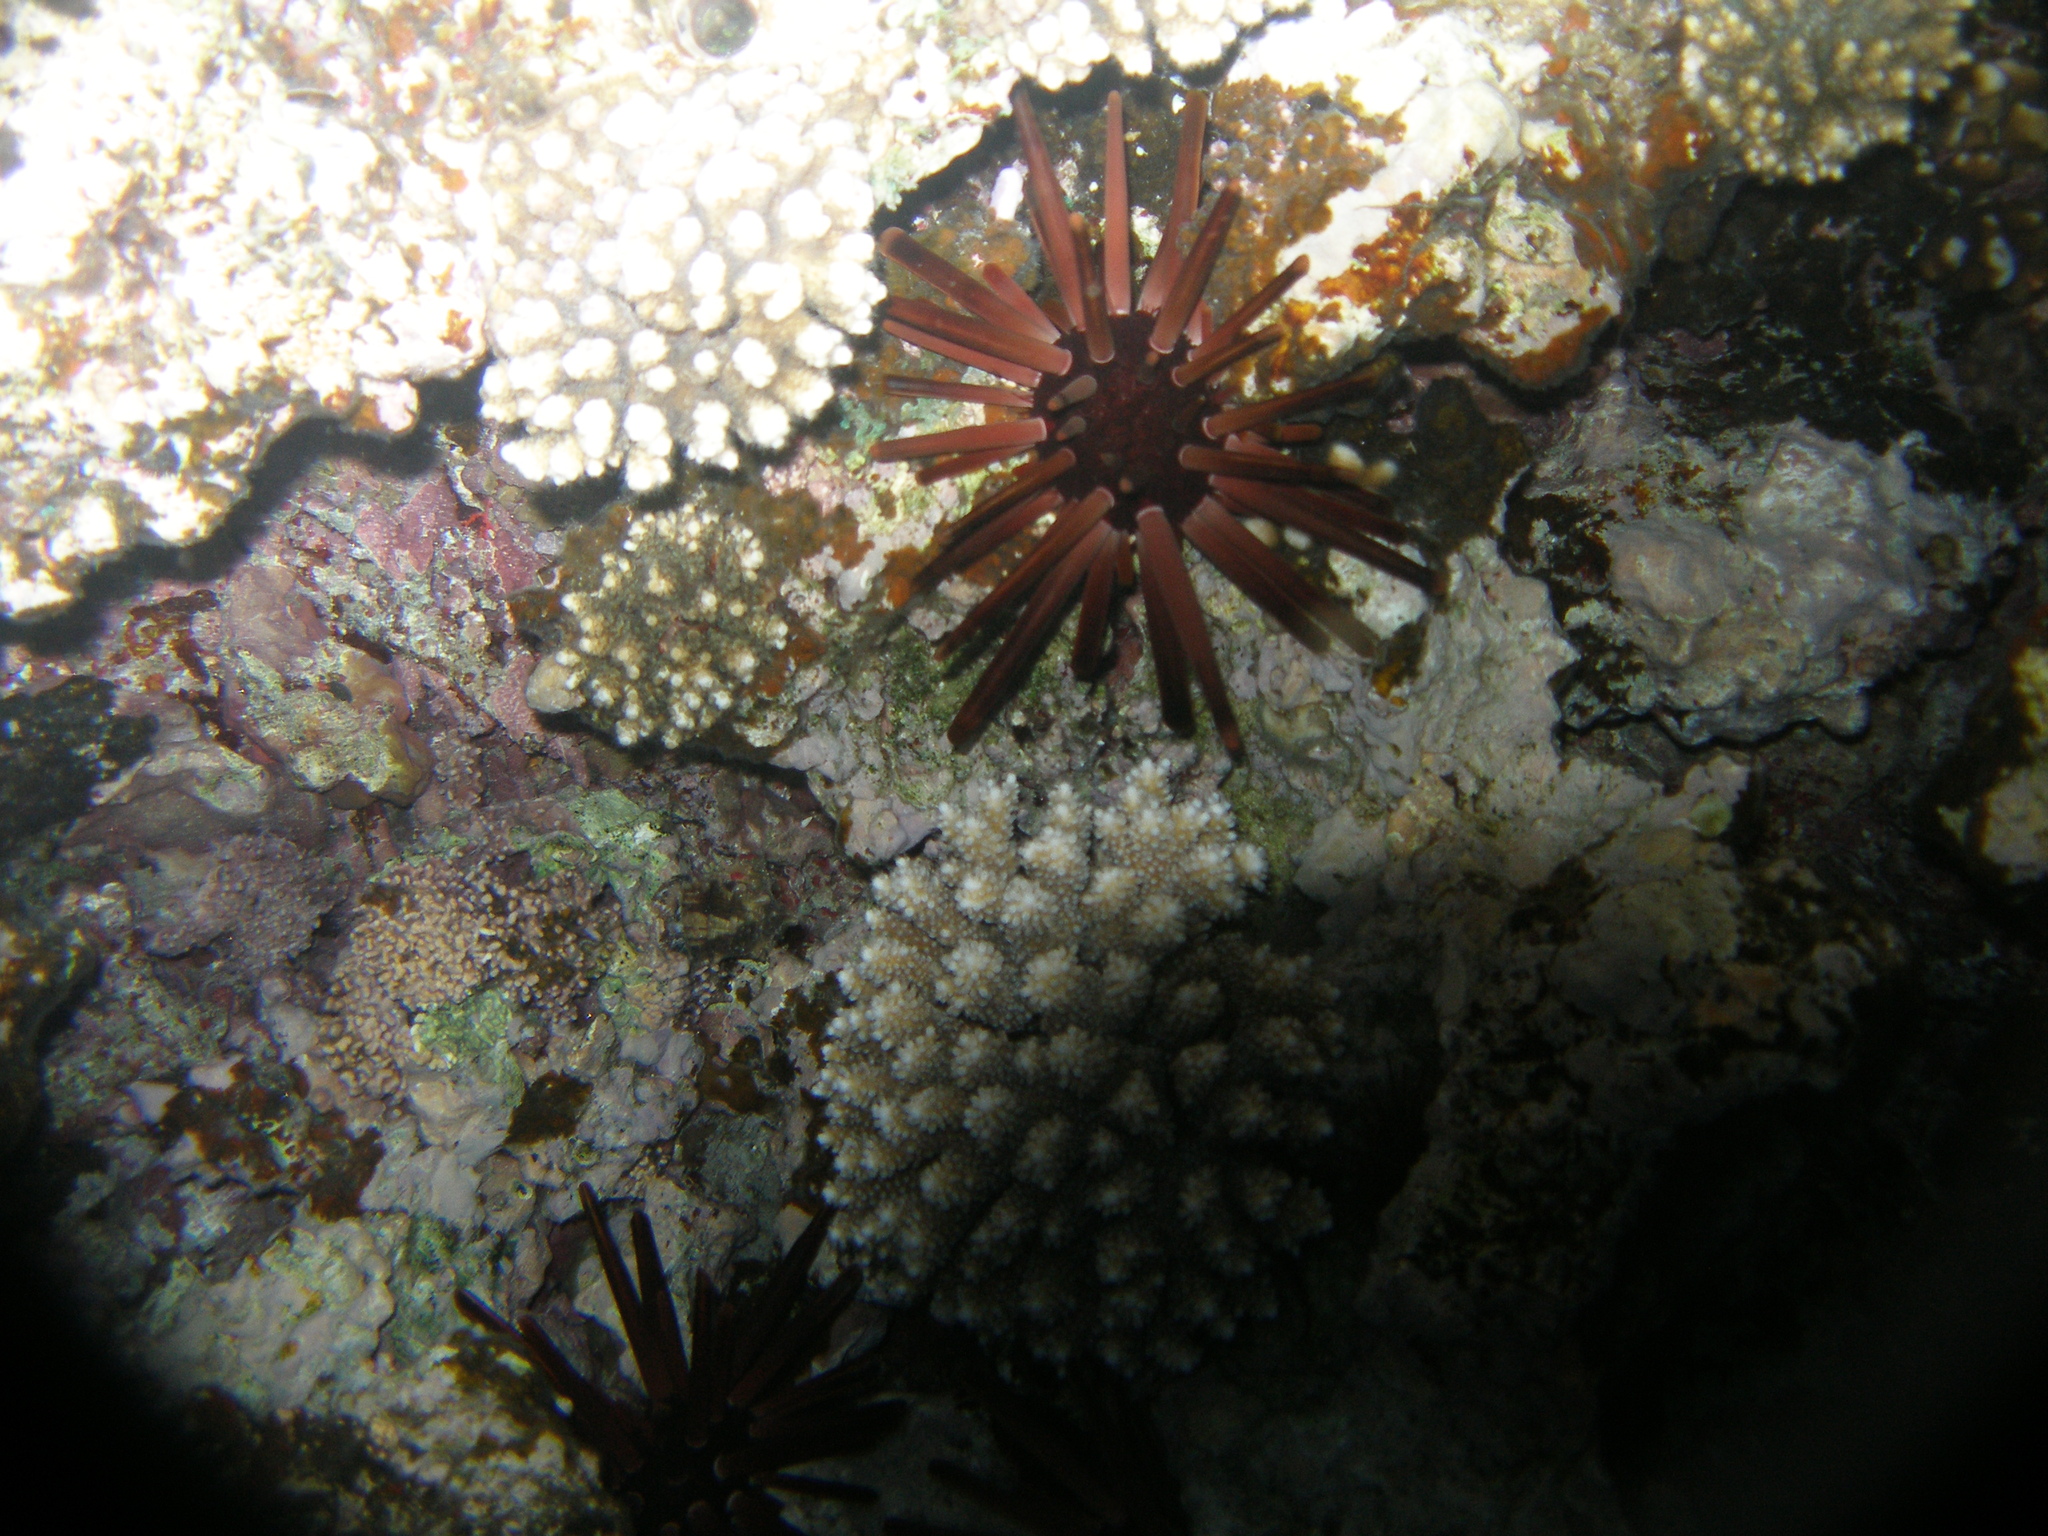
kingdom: Animalia
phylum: Echinodermata
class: Echinoidea
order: Camarodonta
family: Echinometridae
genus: Heterocentrotus
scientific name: Heterocentrotus mamillatus
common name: Slate pencil urchin
